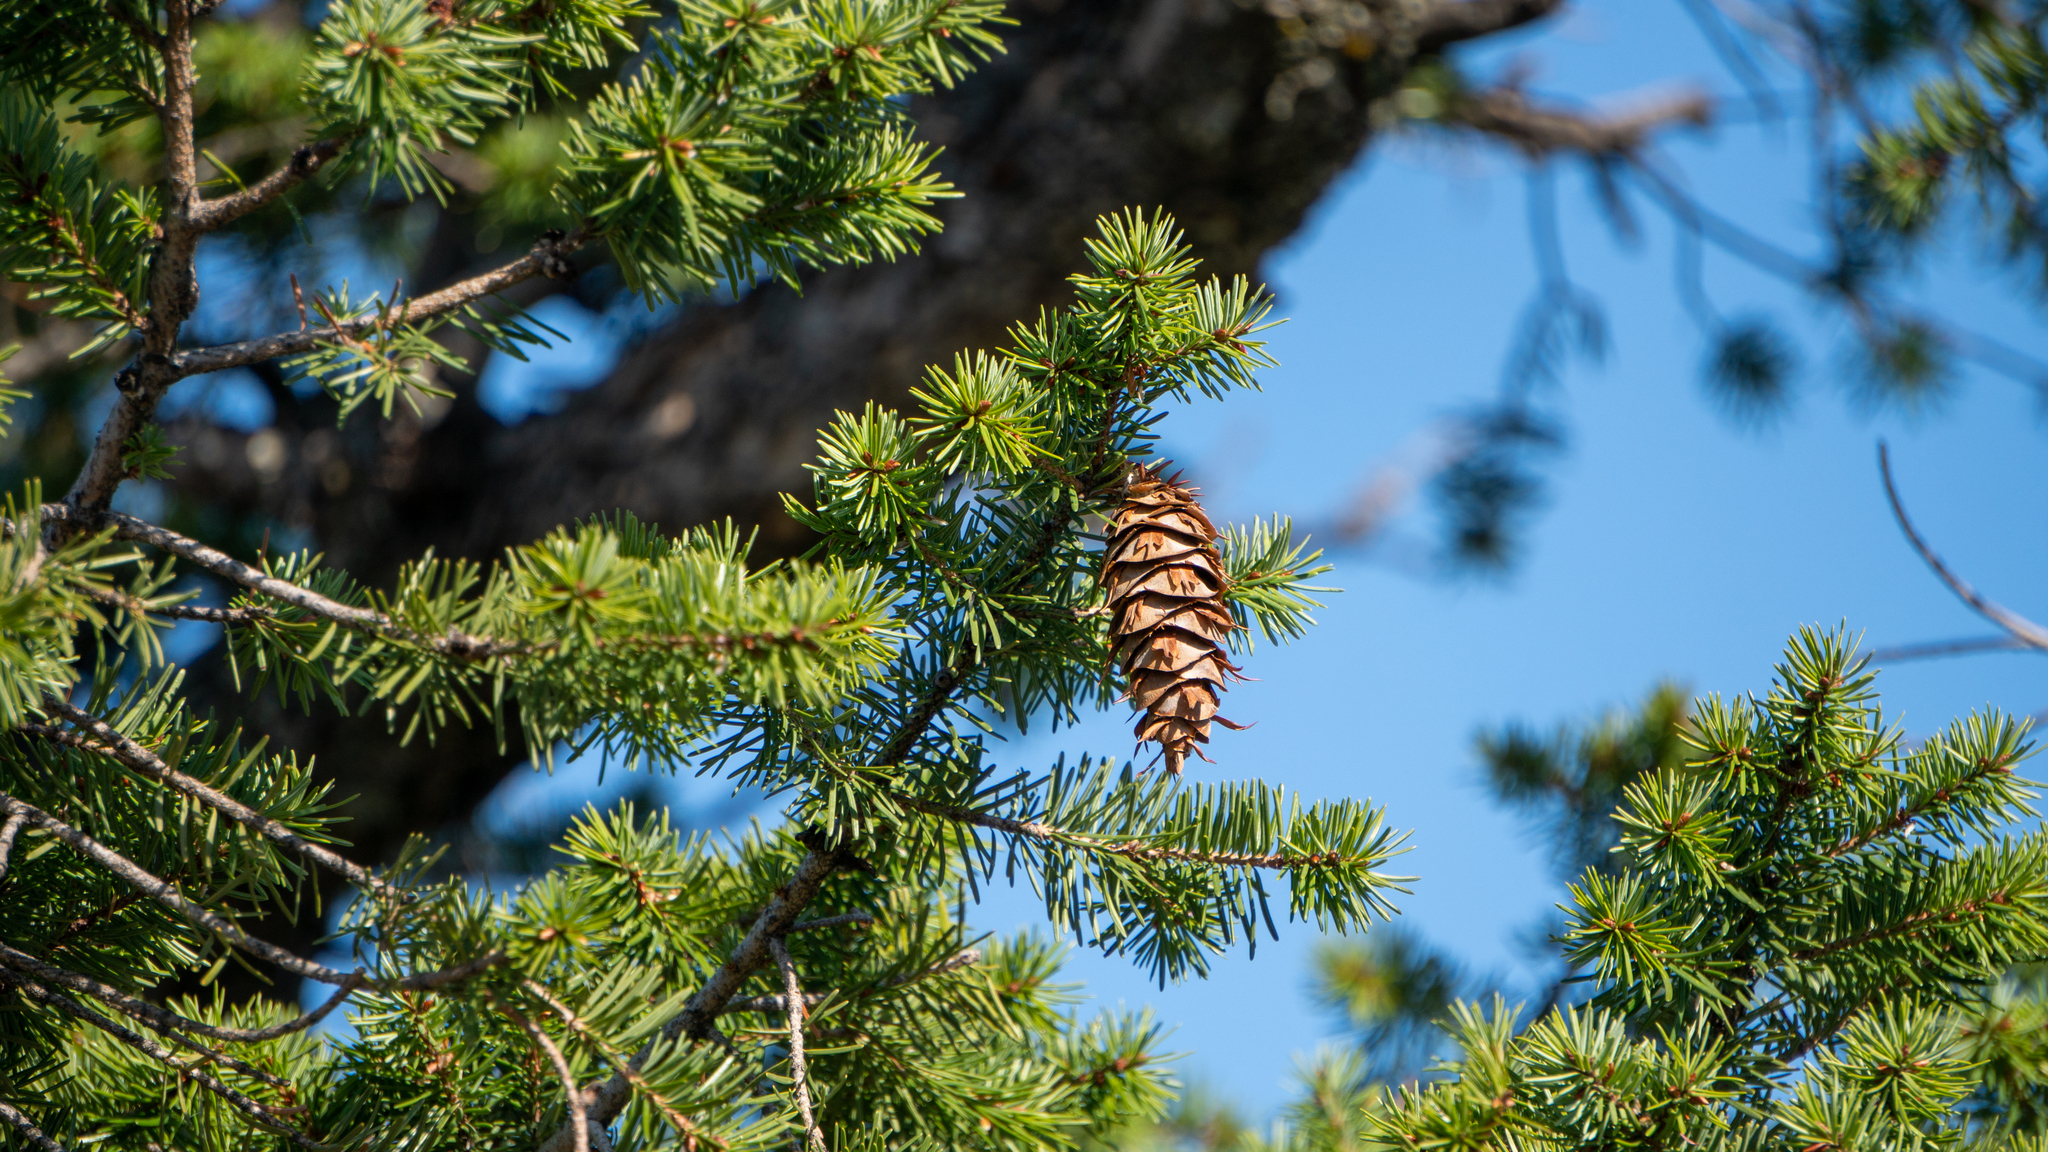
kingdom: Plantae
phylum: Tracheophyta
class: Pinopsida
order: Pinales
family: Pinaceae
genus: Pseudotsuga
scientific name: Pseudotsuga menziesii
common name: Douglas fir
